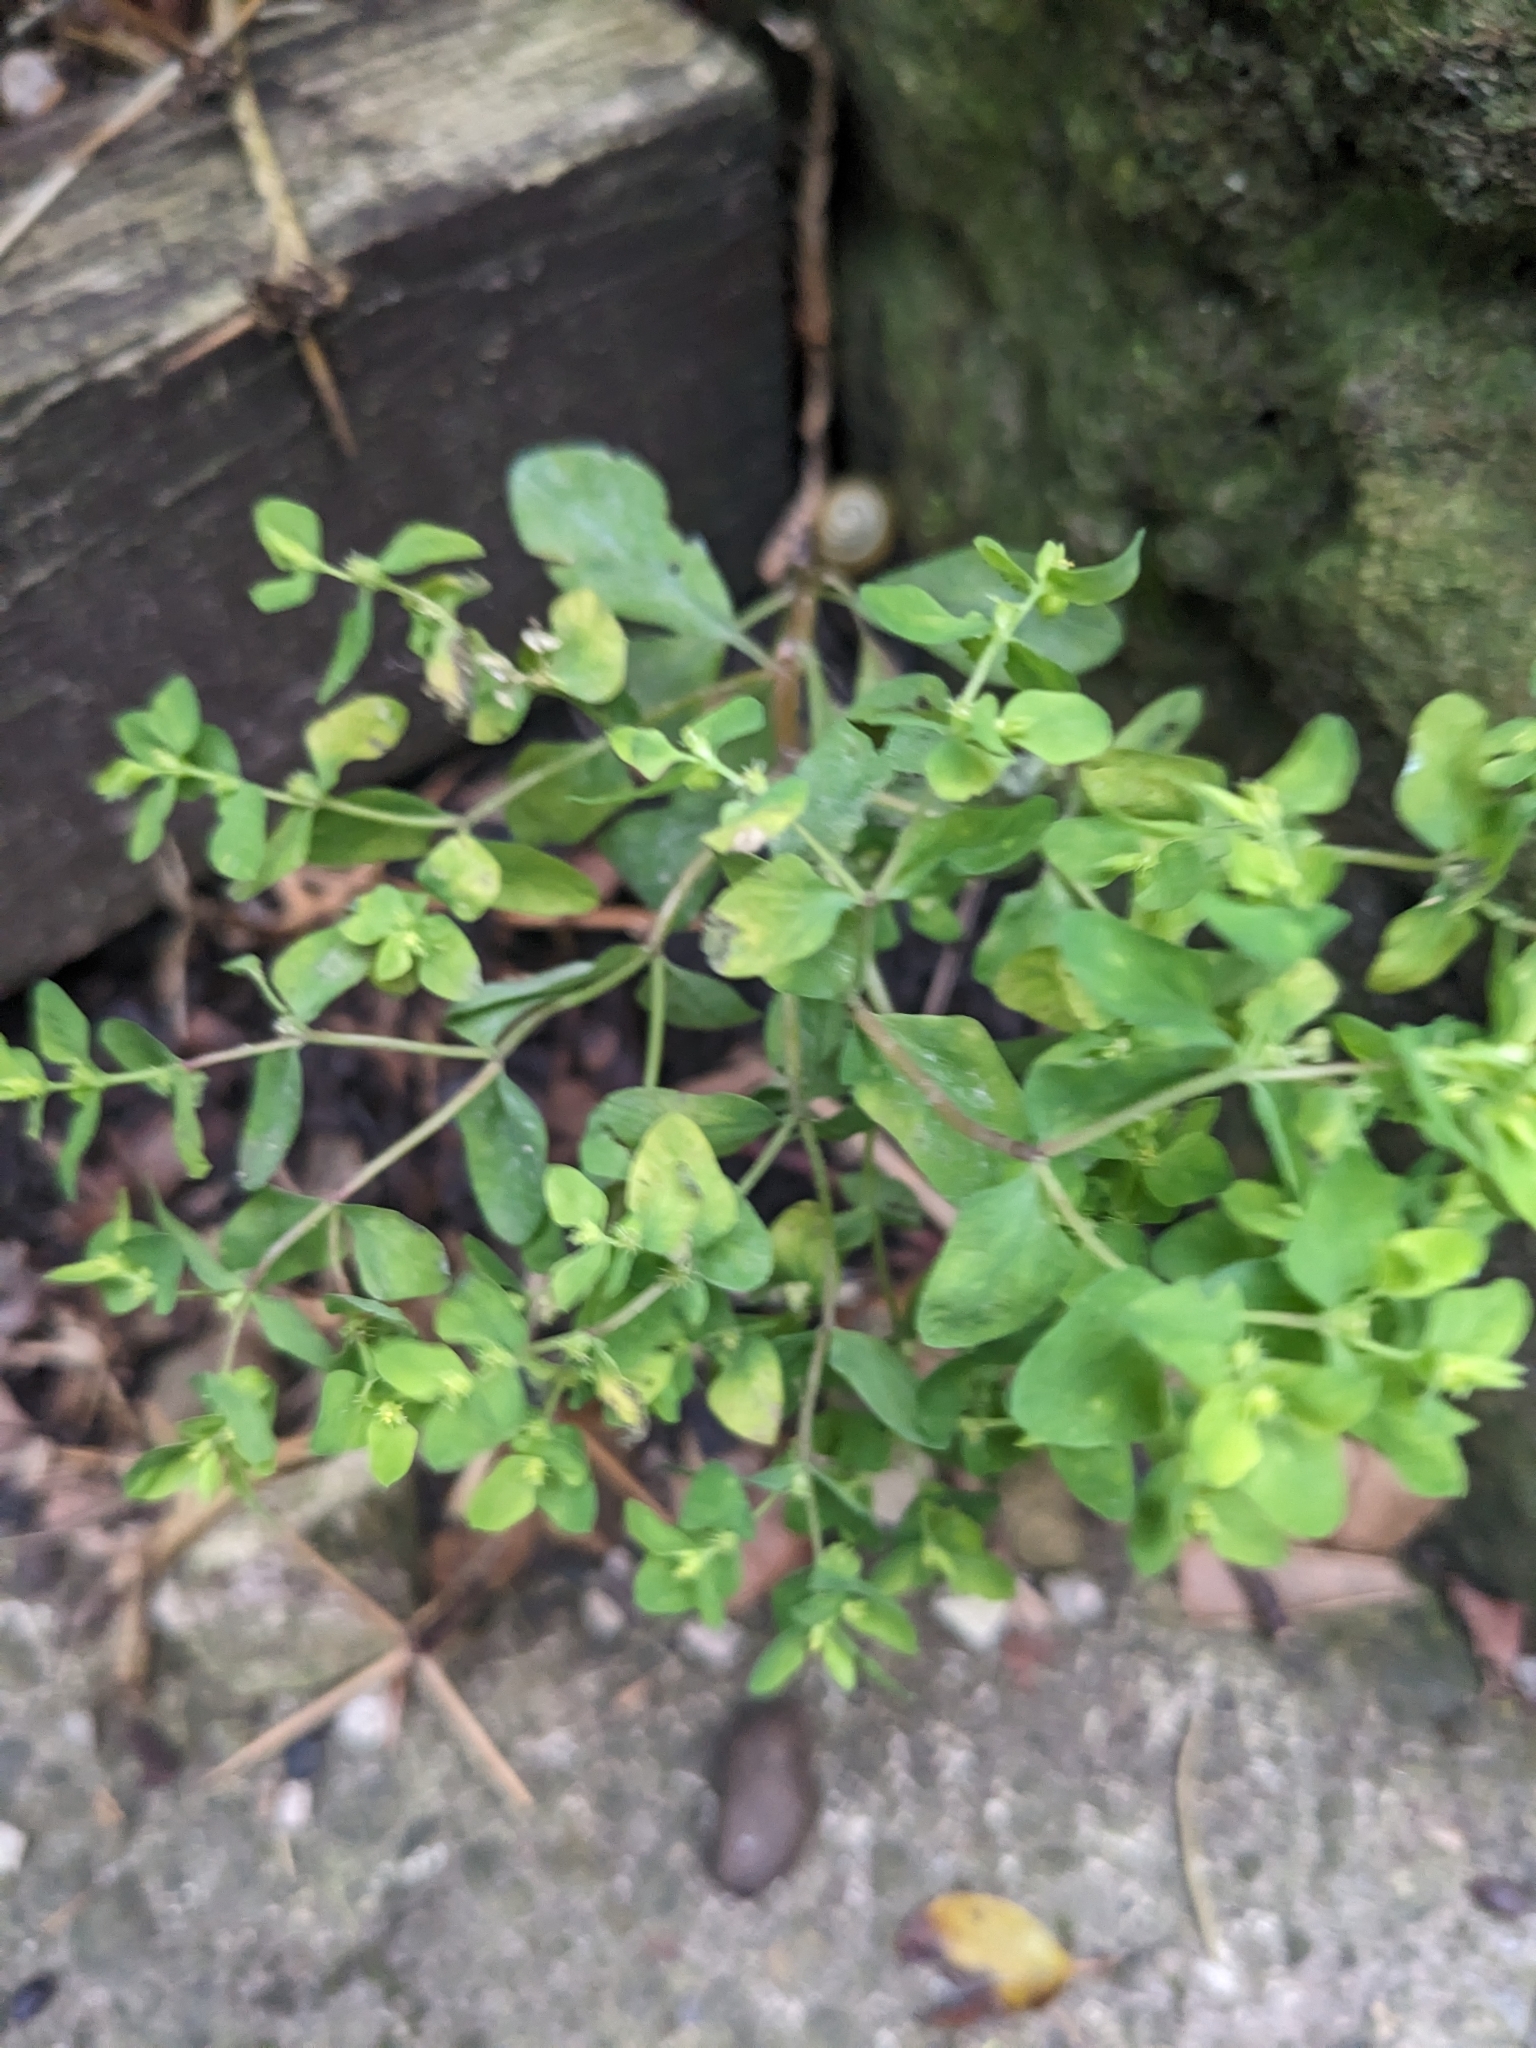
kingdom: Plantae
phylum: Tracheophyta
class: Magnoliopsida
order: Malpighiales
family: Euphorbiaceae
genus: Euphorbia
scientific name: Euphorbia peplus
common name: Petty spurge
